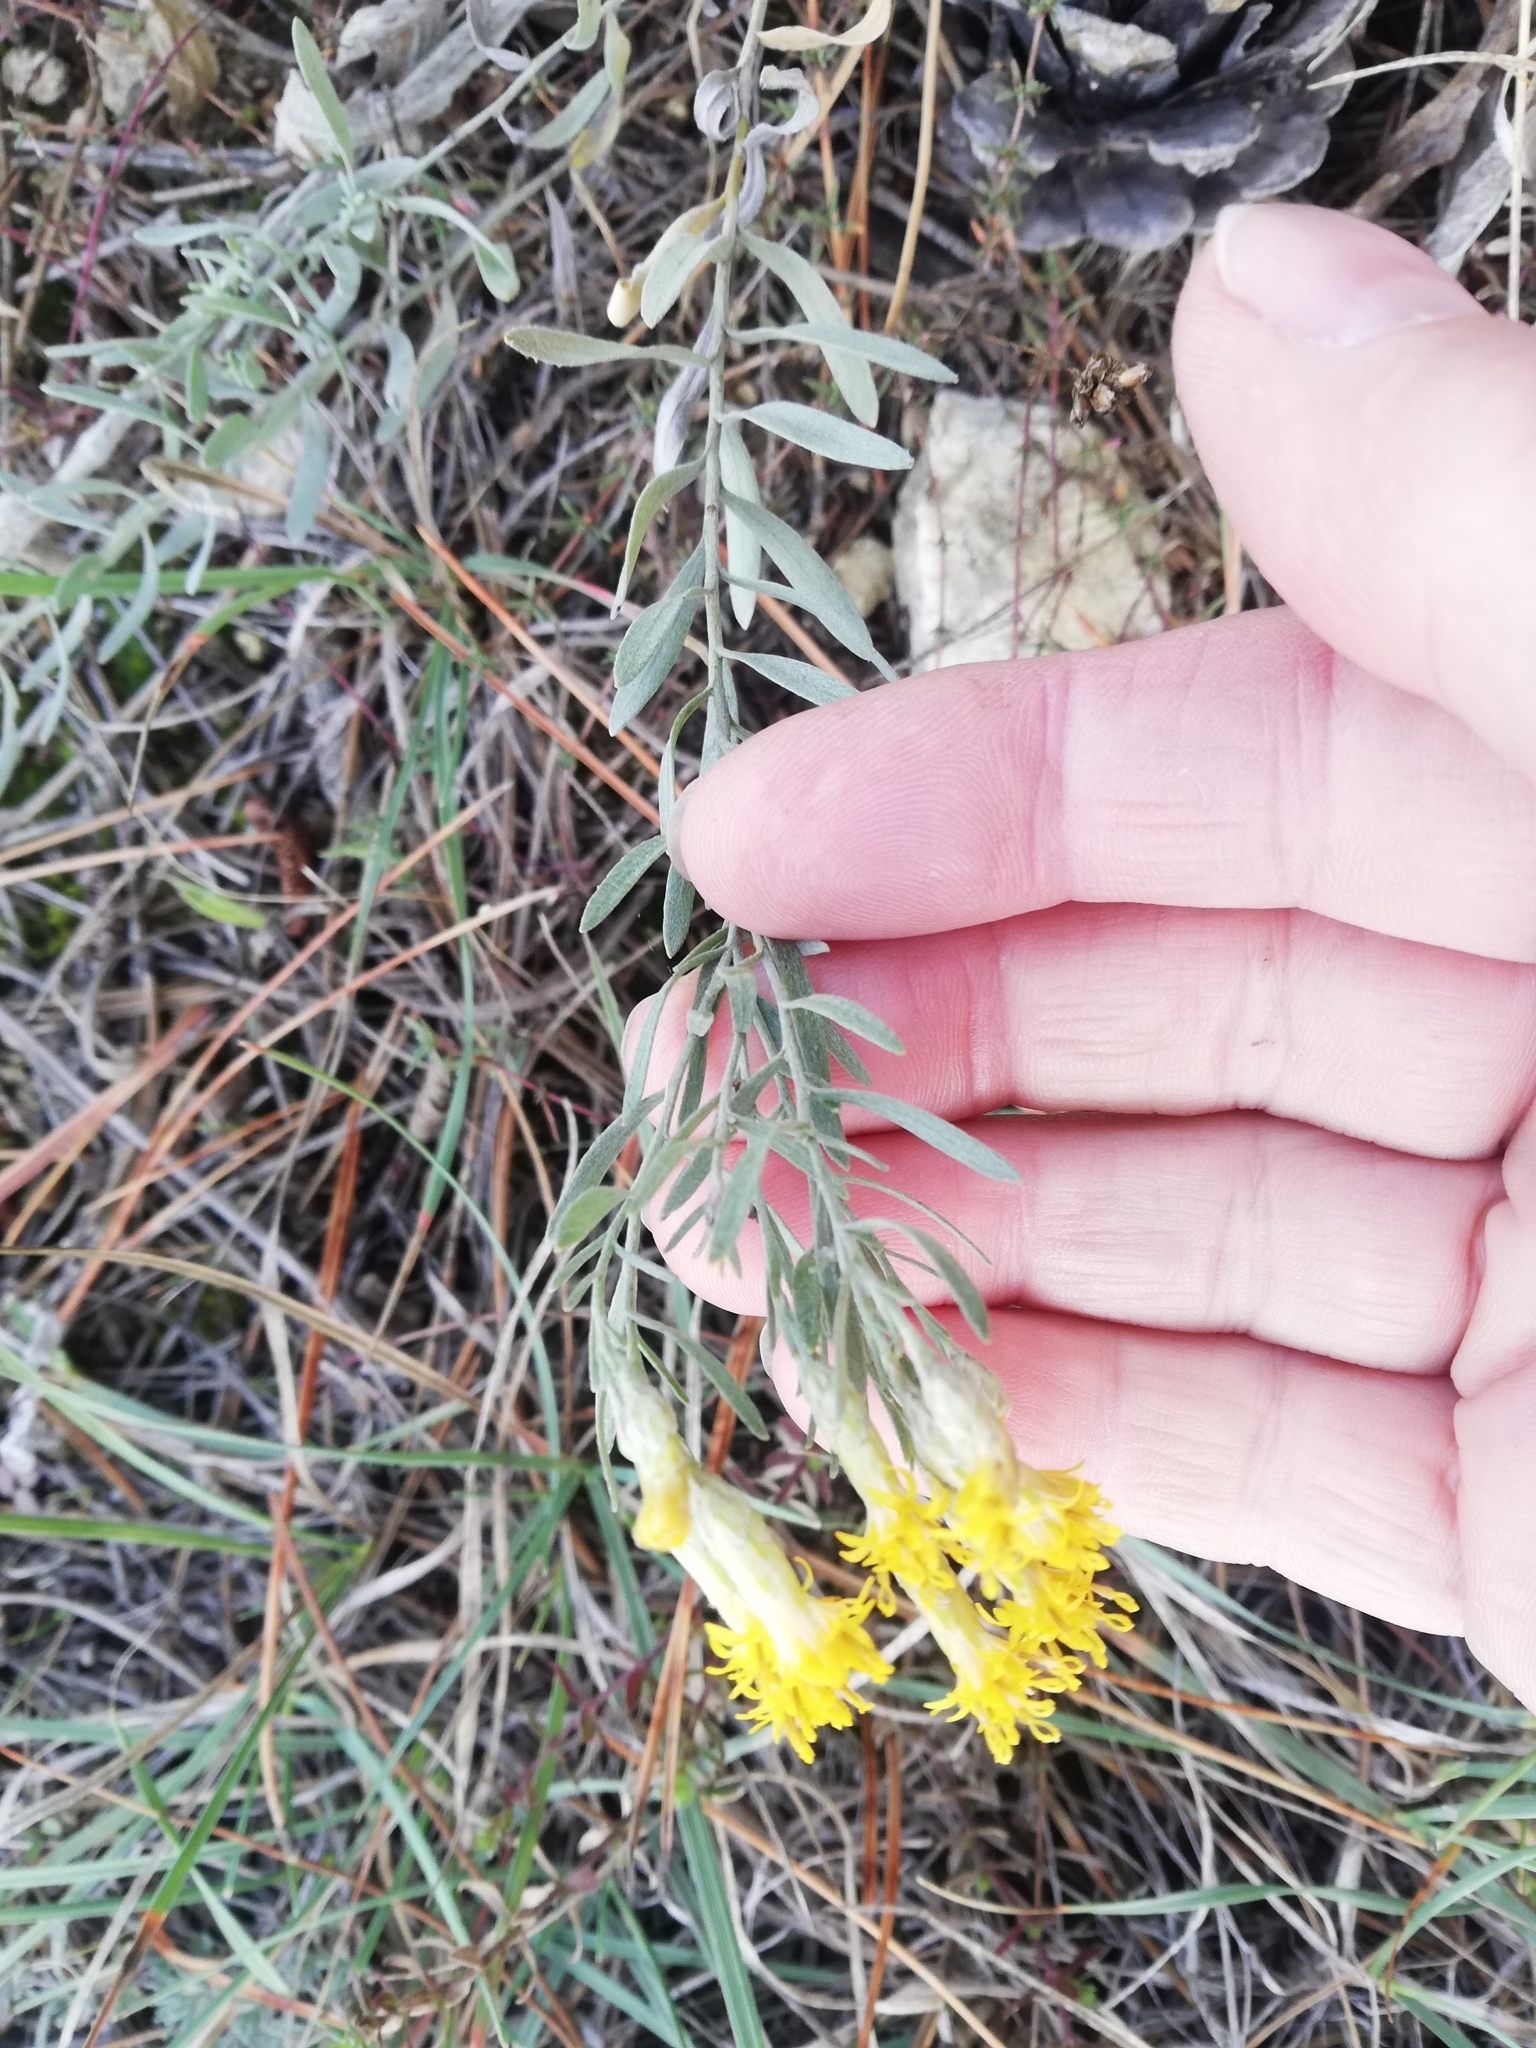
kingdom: Plantae
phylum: Tracheophyta
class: Magnoliopsida
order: Asterales
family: Asteraceae
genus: Galatella
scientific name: Galatella linosyris
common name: Goldilocks aster
